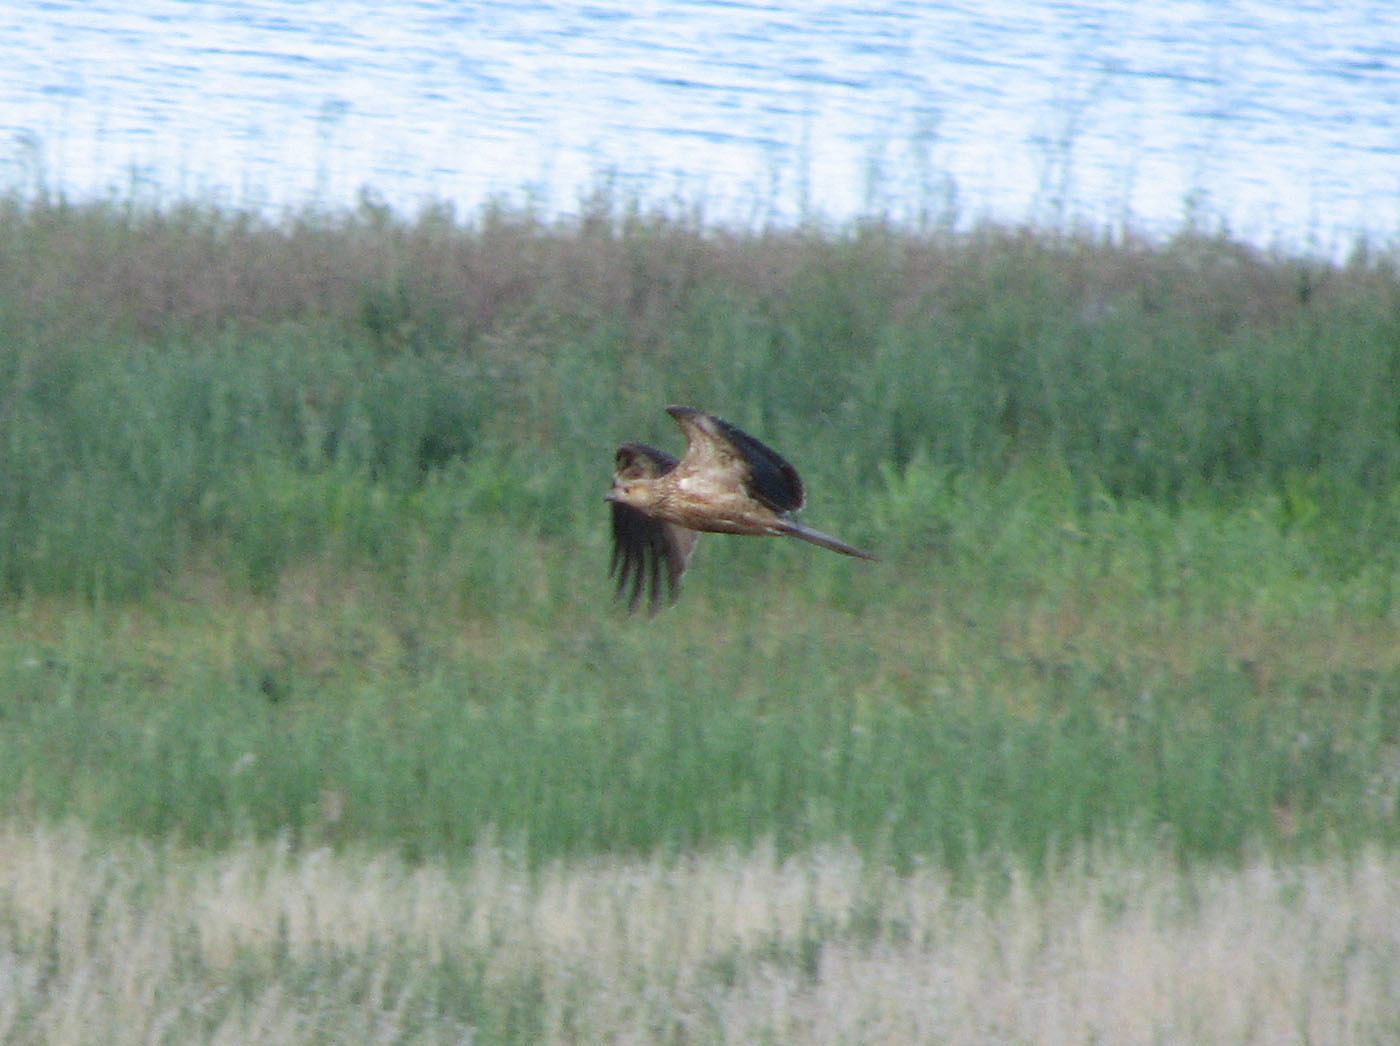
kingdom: Animalia
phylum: Chordata
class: Aves
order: Accipitriformes
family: Accipitridae
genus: Haliastur
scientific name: Haliastur sphenurus
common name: Whistling kite
